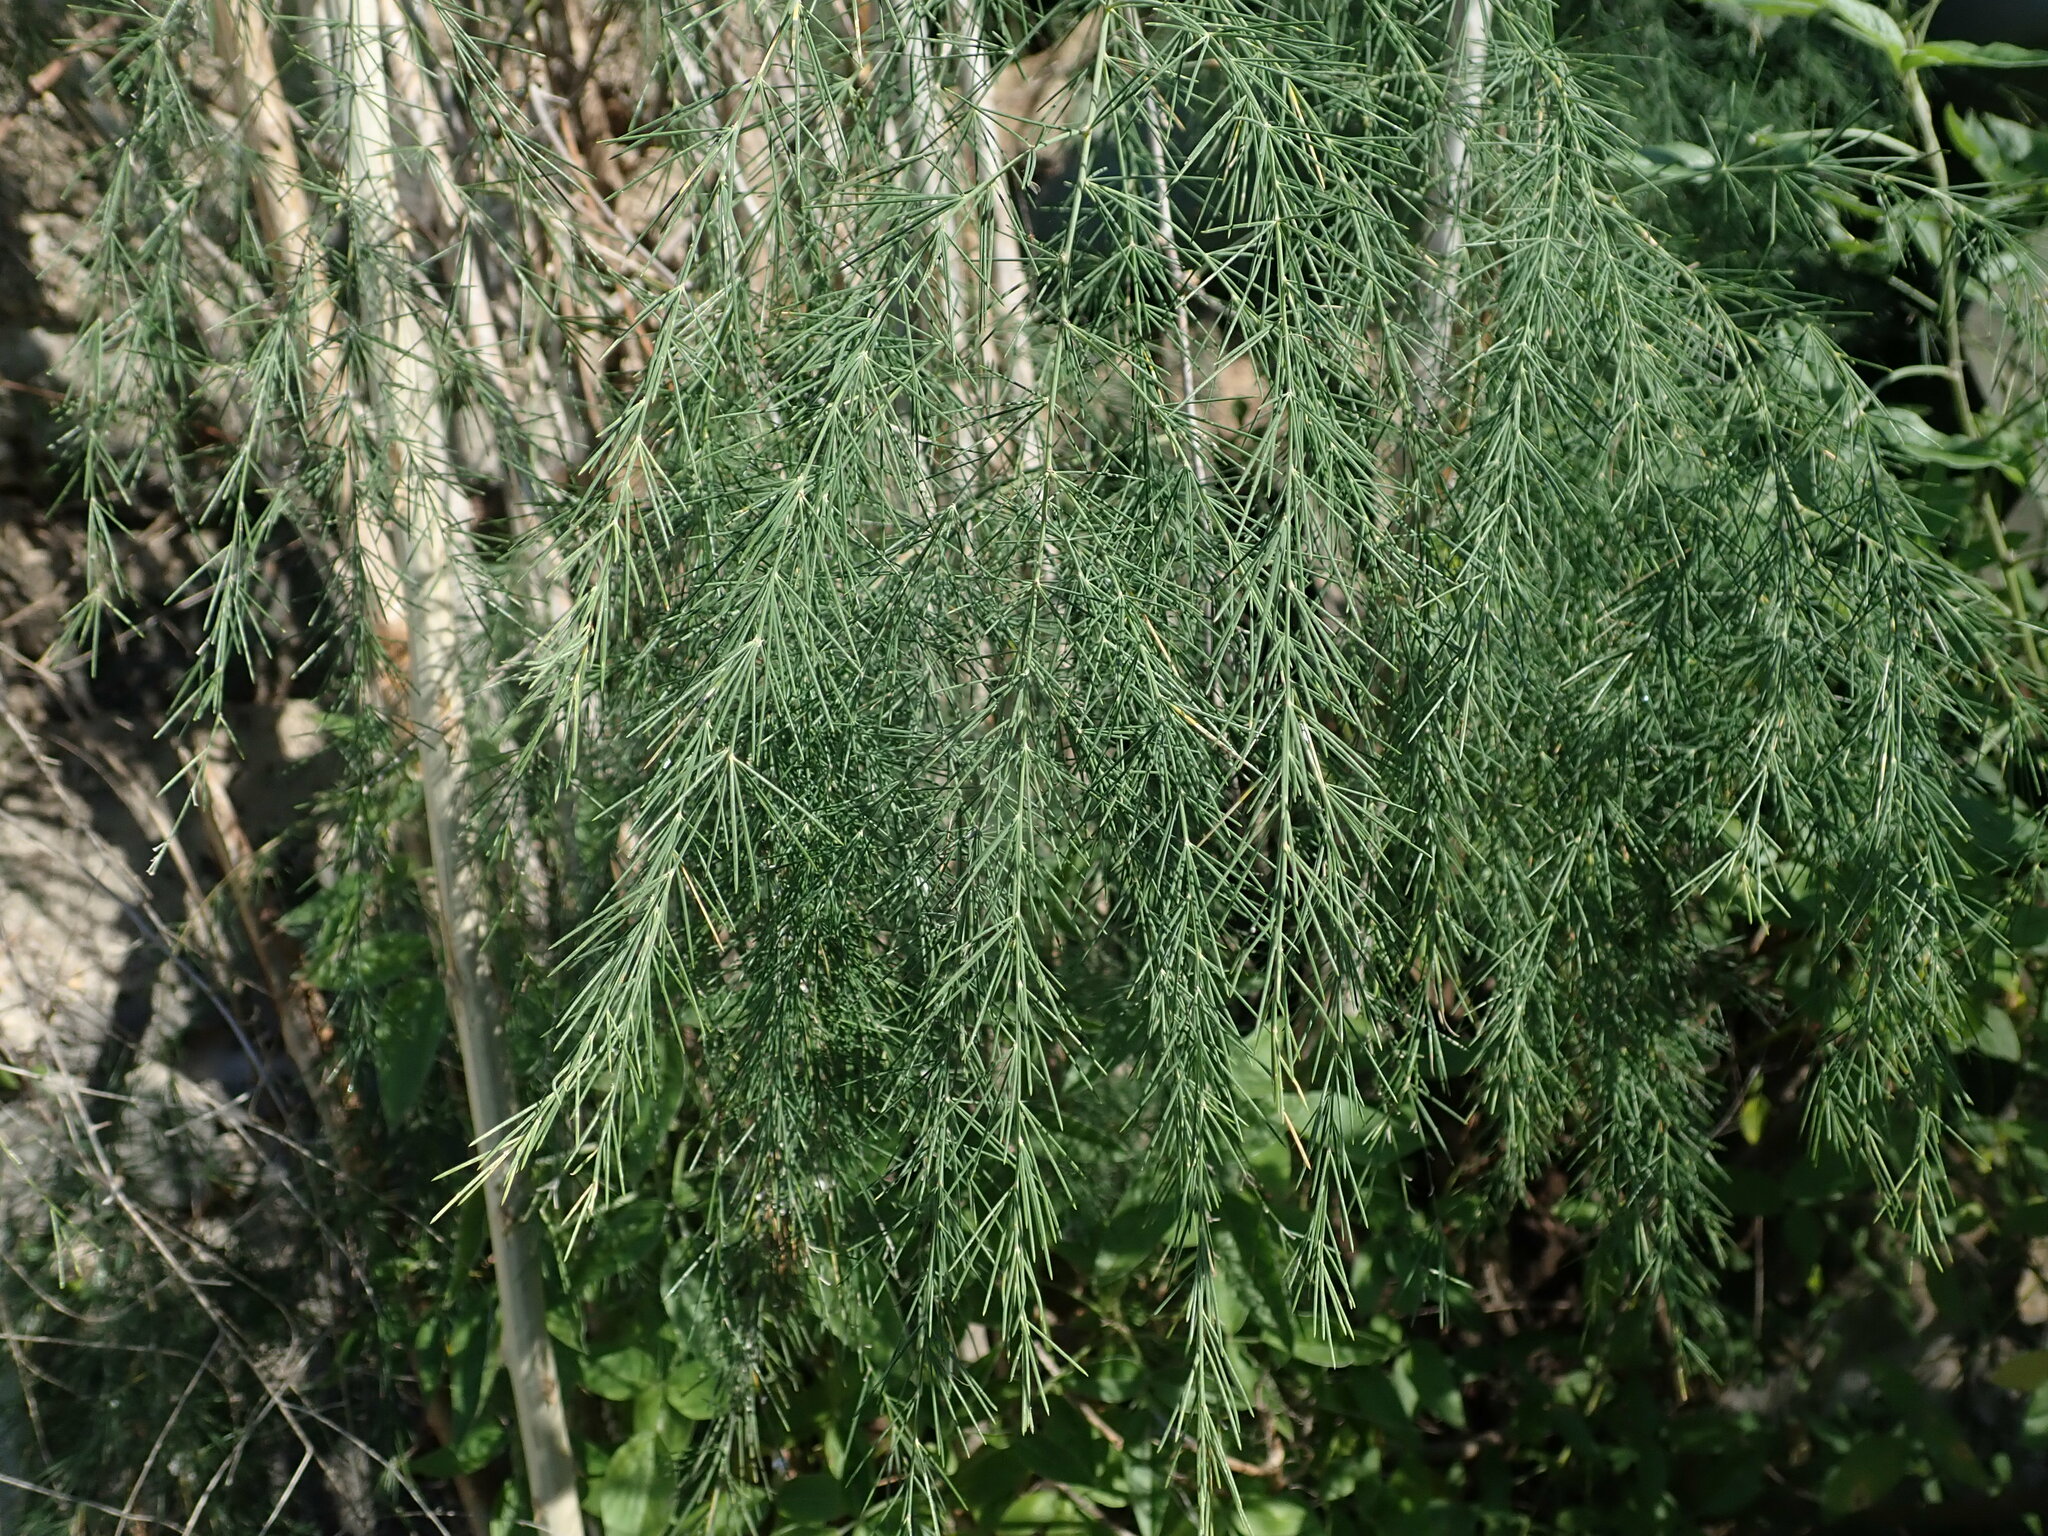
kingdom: Plantae
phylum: Tracheophyta
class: Liliopsida
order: Asparagales
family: Asparagaceae
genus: Asparagus
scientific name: Asparagus plocamoides
